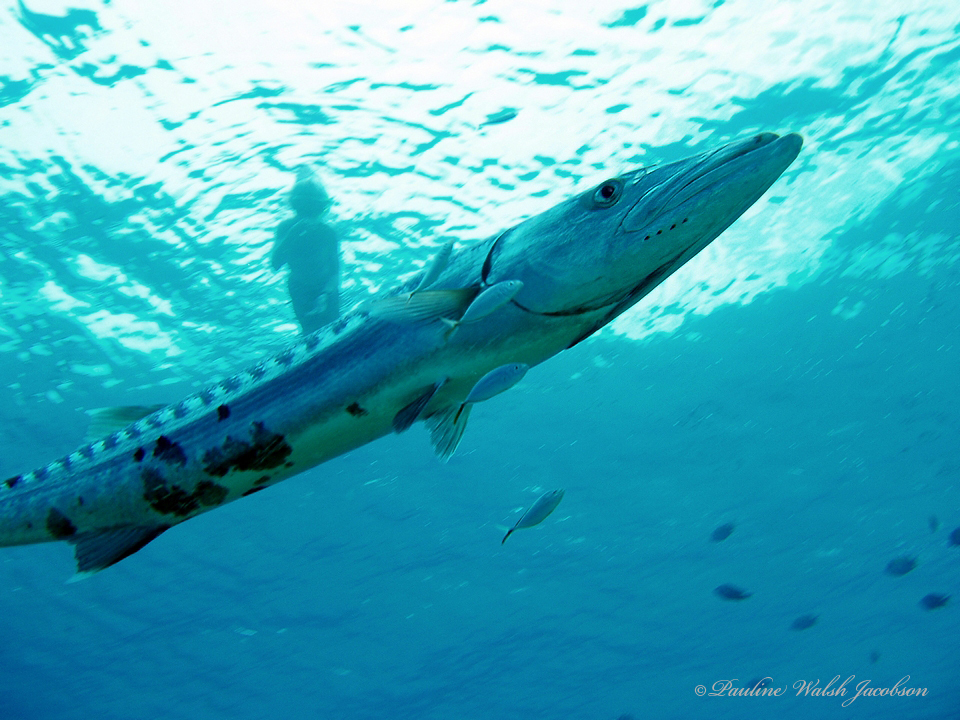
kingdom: Animalia
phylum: Chordata
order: Perciformes
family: Sphyraenidae
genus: Sphyraena
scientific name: Sphyraena barracuda
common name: Great barracuda
